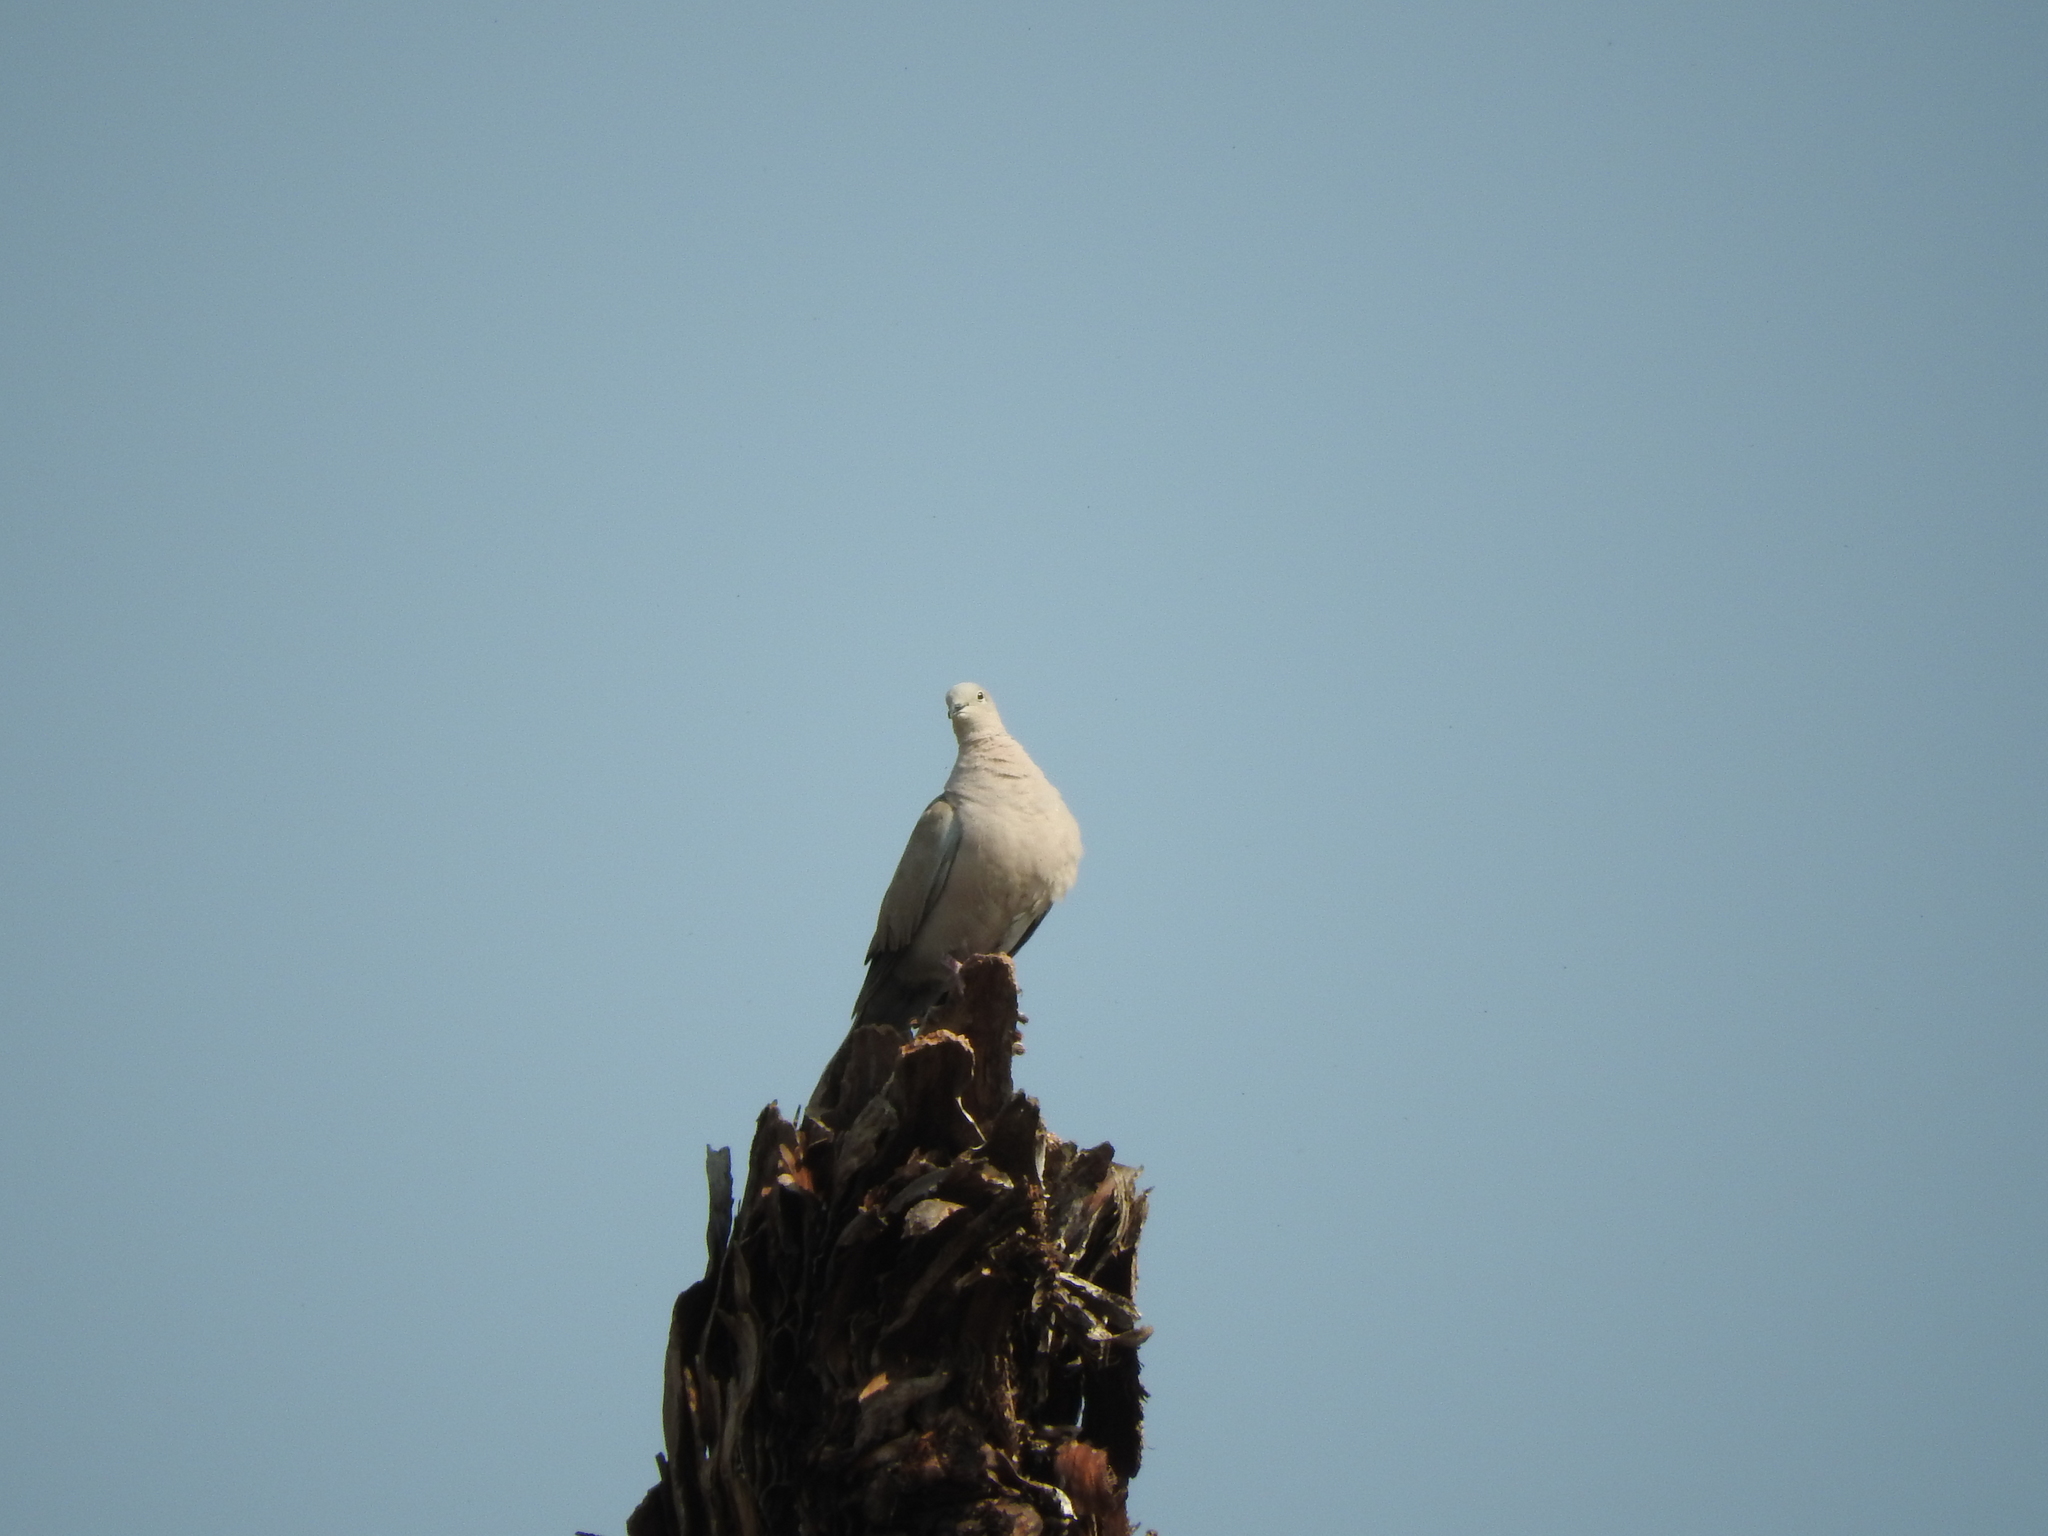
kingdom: Animalia
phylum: Chordata
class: Aves
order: Columbiformes
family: Columbidae
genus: Streptopelia
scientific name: Streptopelia decaocto
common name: Eurasian collared dove
